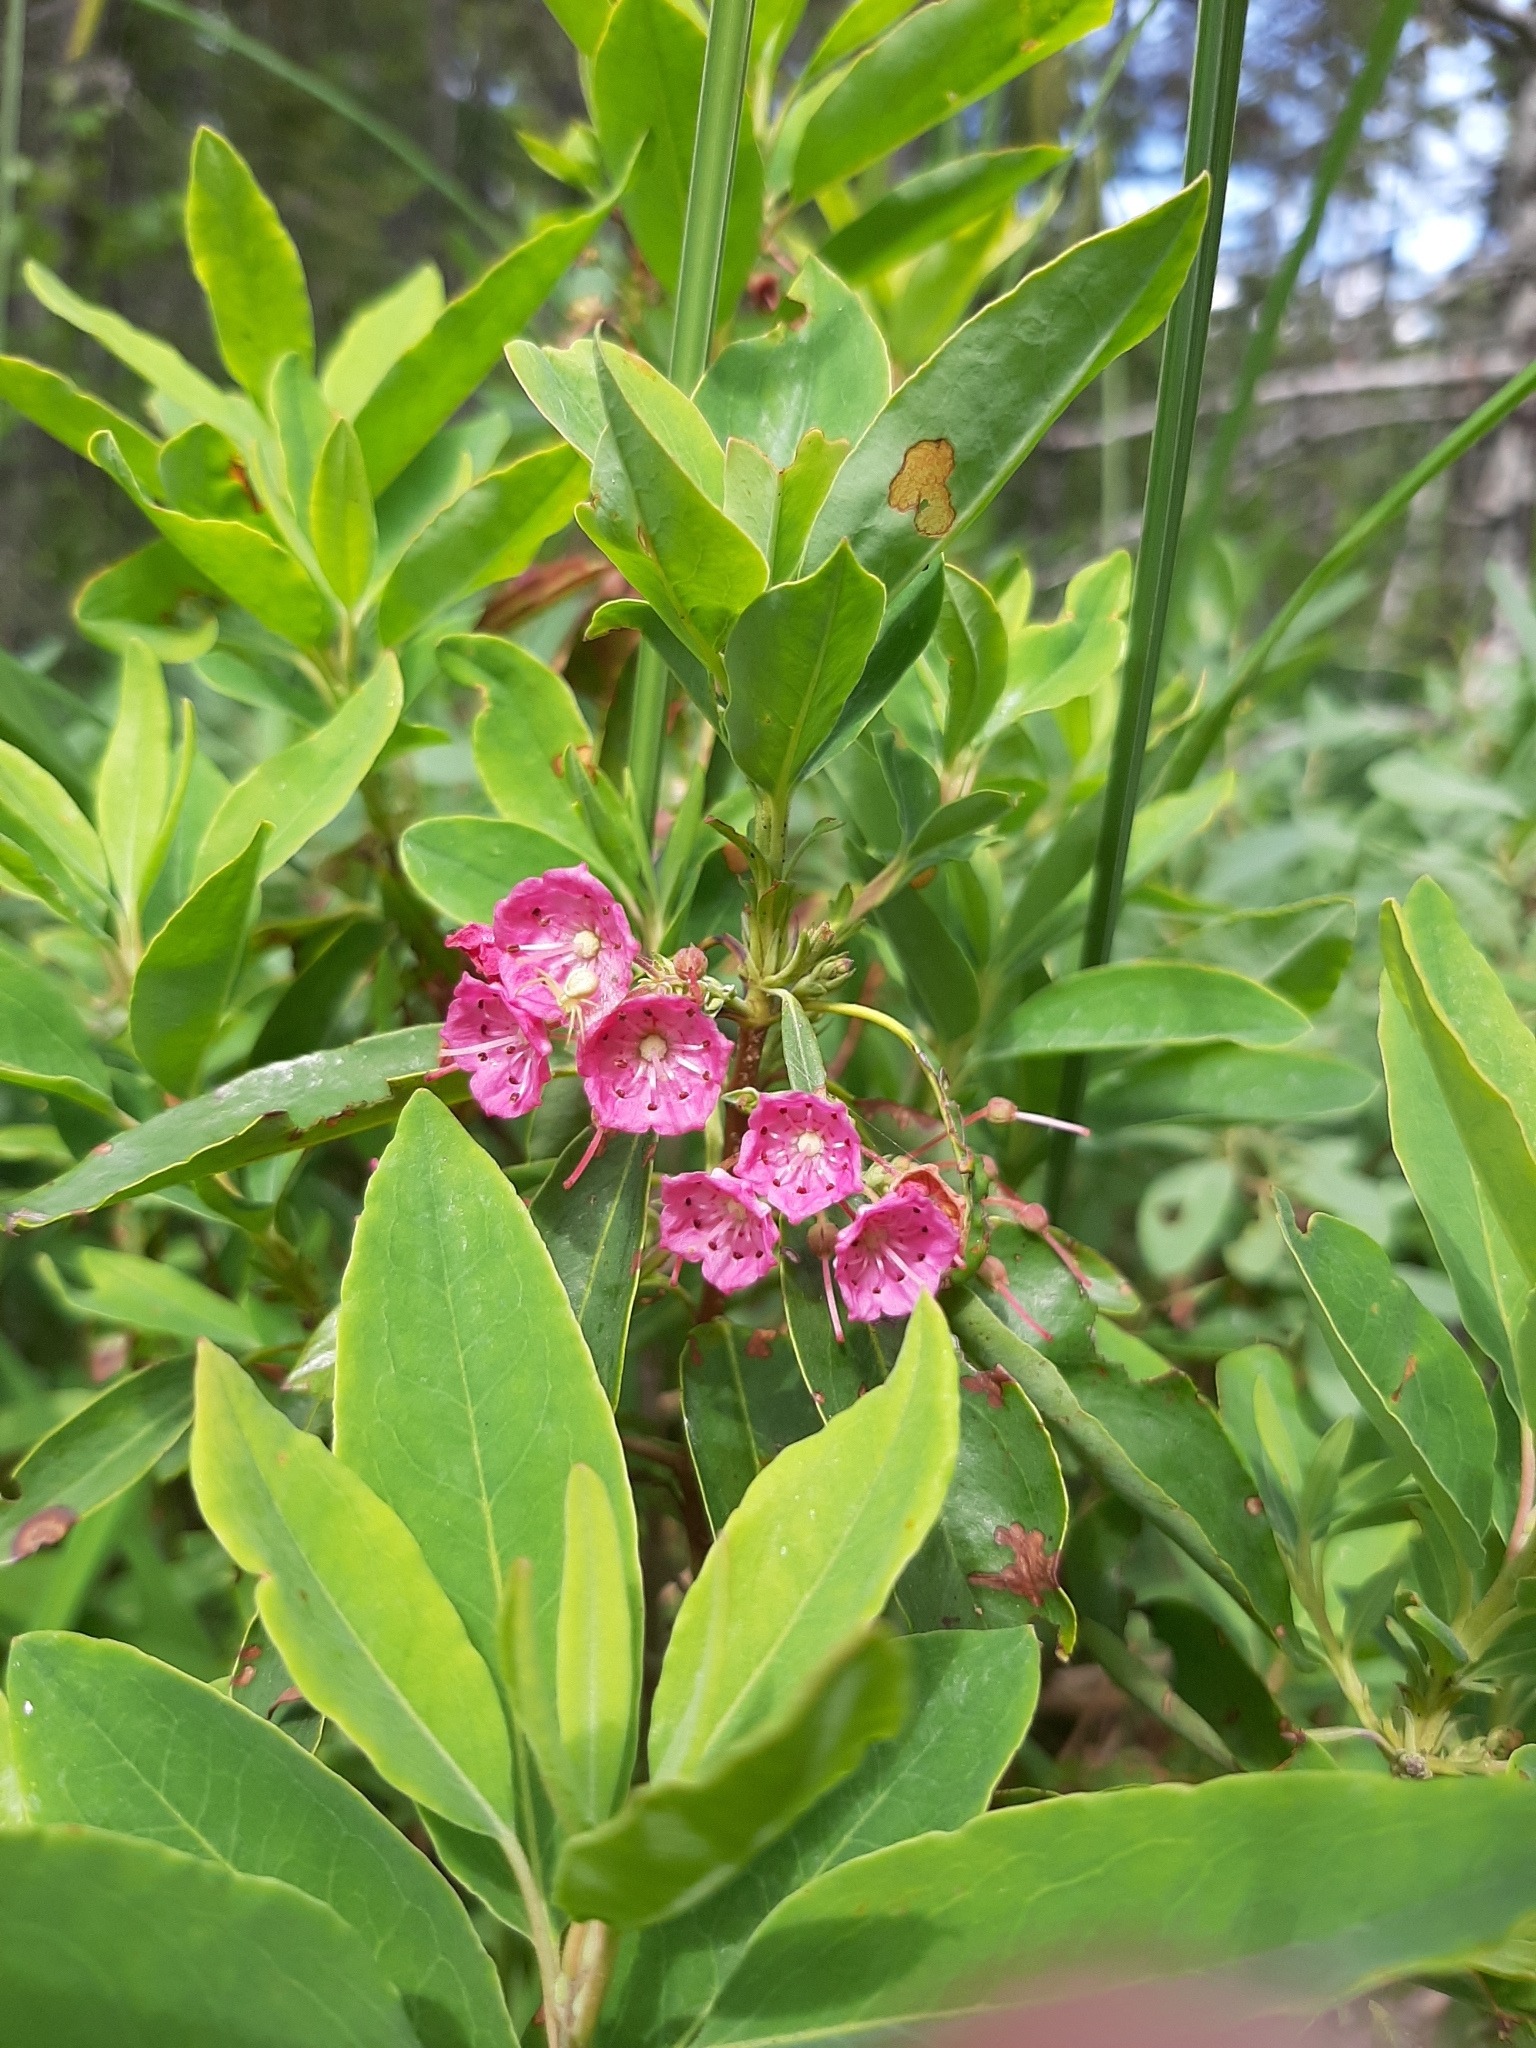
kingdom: Plantae
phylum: Tracheophyta
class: Magnoliopsida
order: Ericales
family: Ericaceae
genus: Kalmia
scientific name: Kalmia angustifolia
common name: Sheep-laurel
